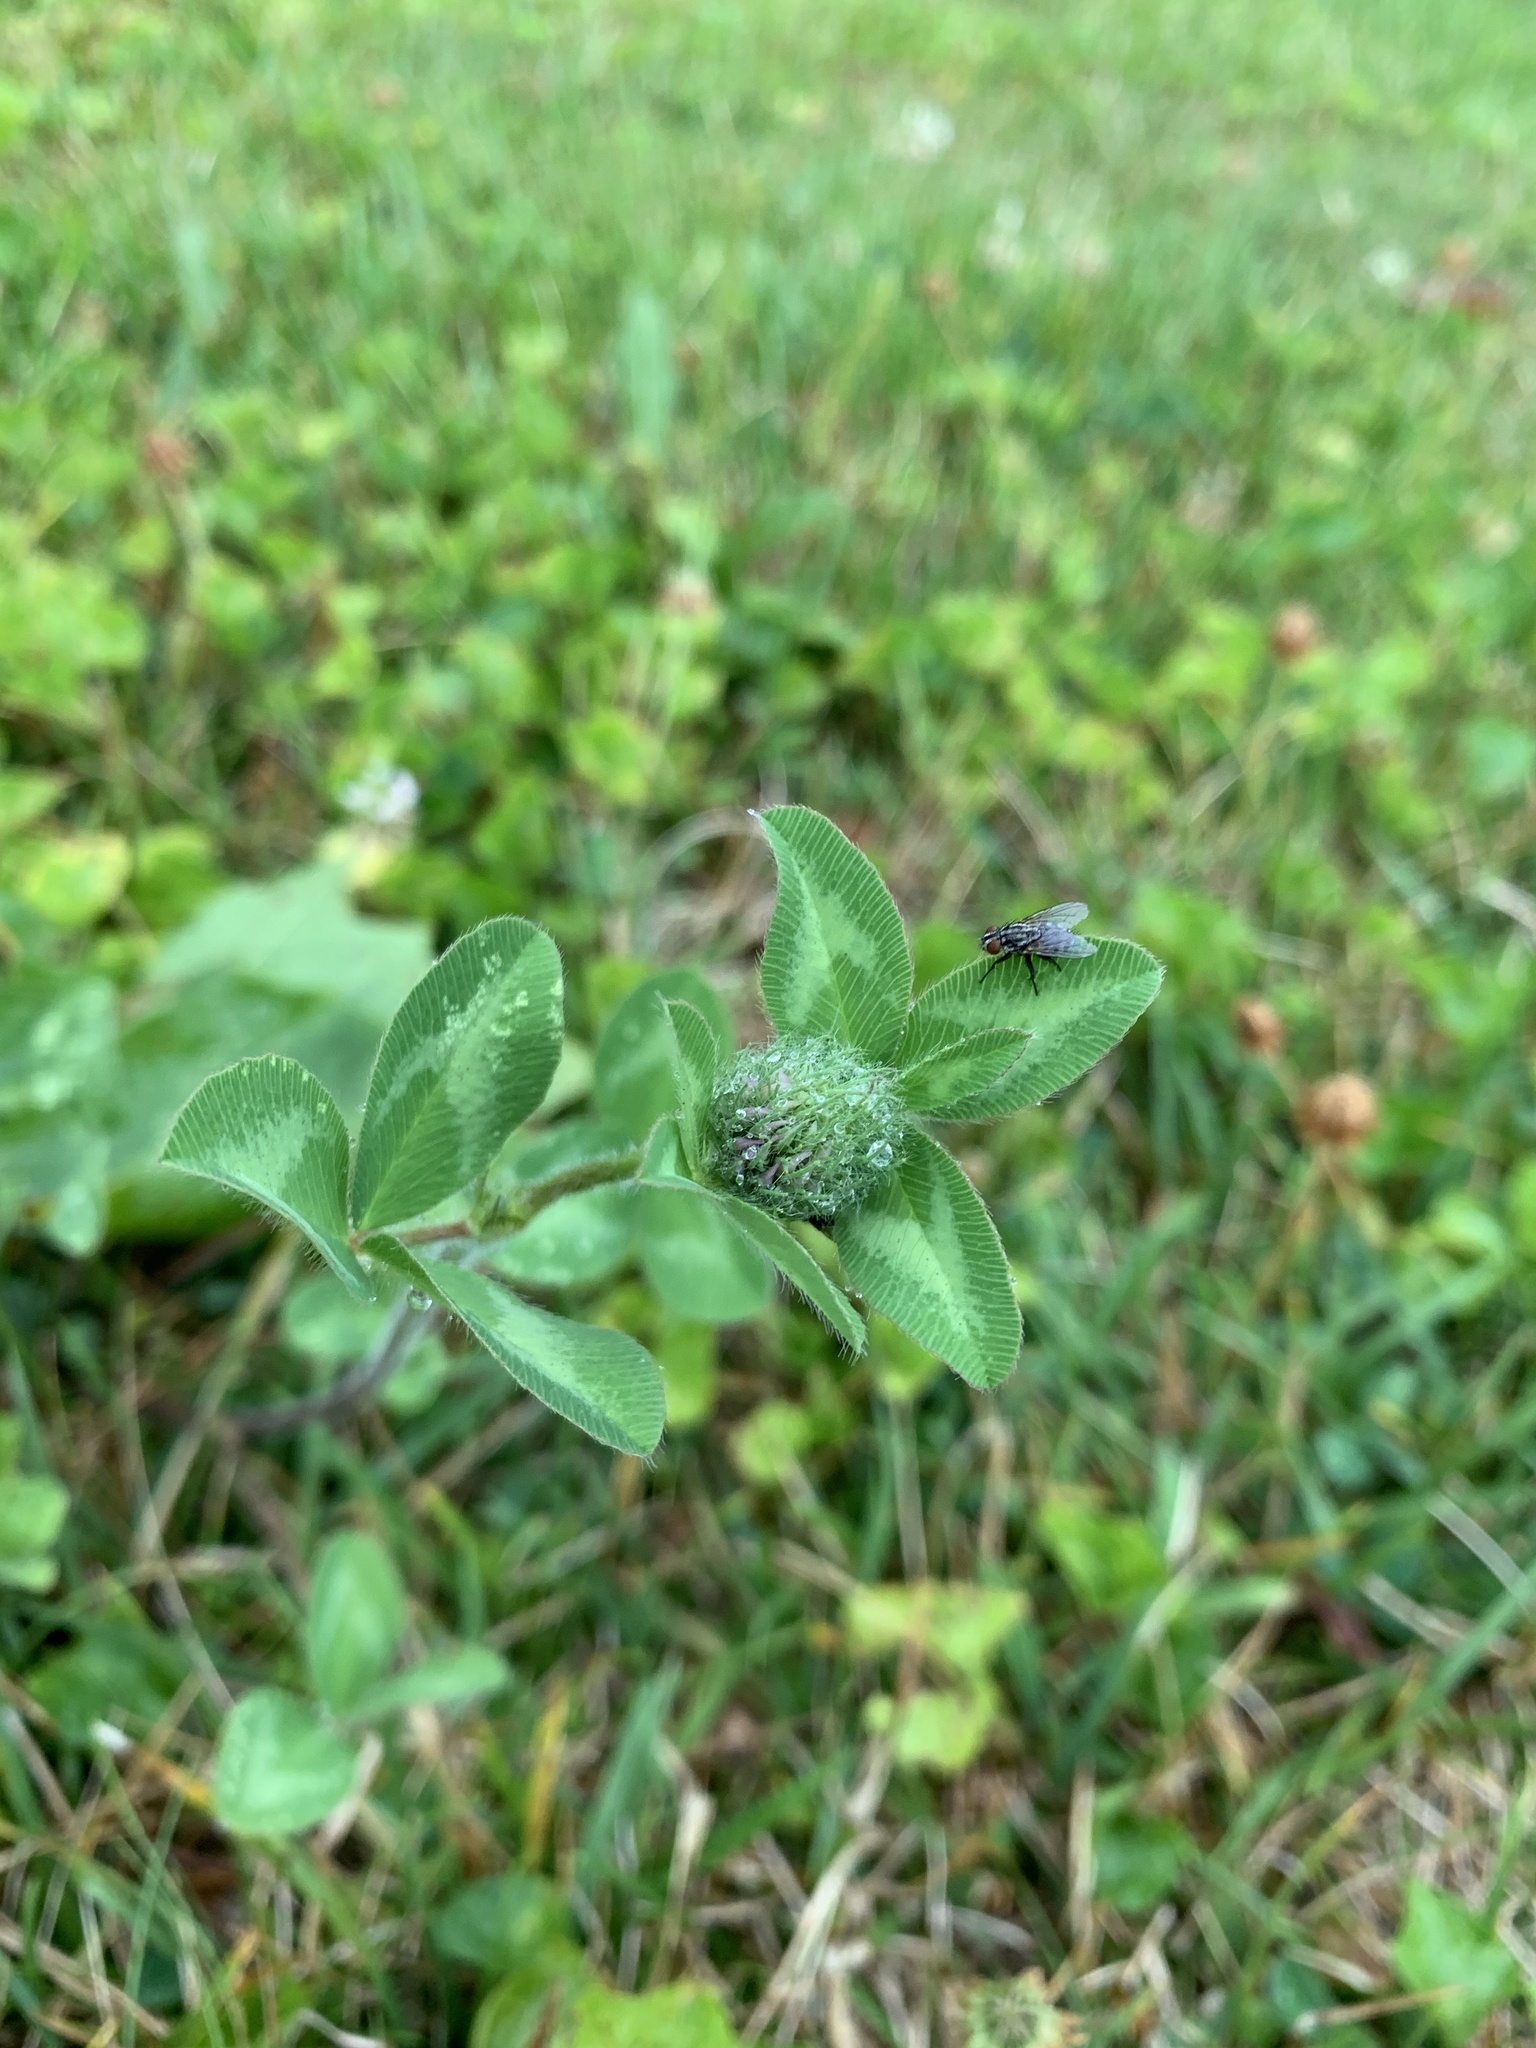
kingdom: Plantae
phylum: Tracheophyta
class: Magnoliopsida
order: Fabales
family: Fabaceae
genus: Trifolium
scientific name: Trifolium pratense
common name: Red clover
